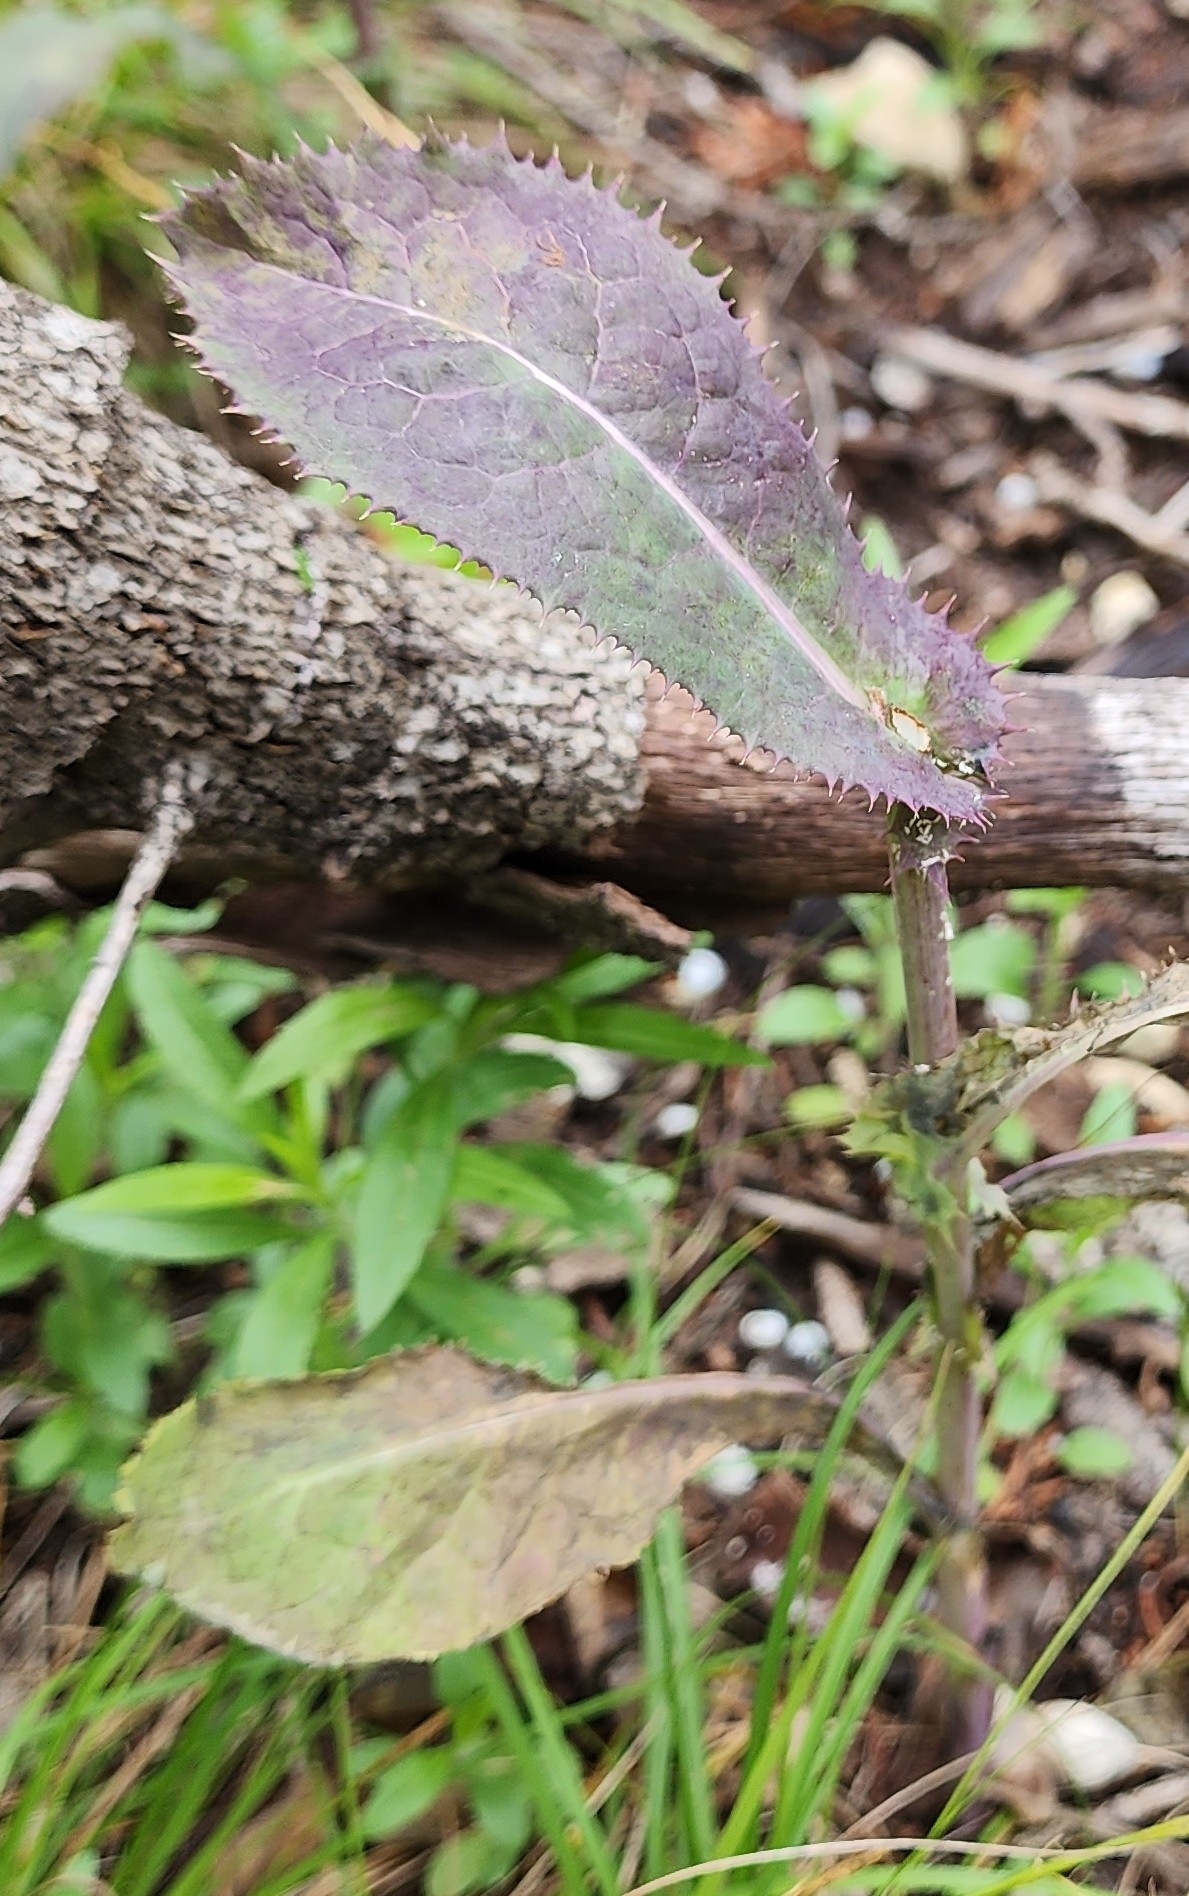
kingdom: Plantae
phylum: Tracheophyta
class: Magnoliopsida
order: Asterales
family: Asteraceae
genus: Sonchus
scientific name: Sonchus asper
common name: Prickly sow-thistle
